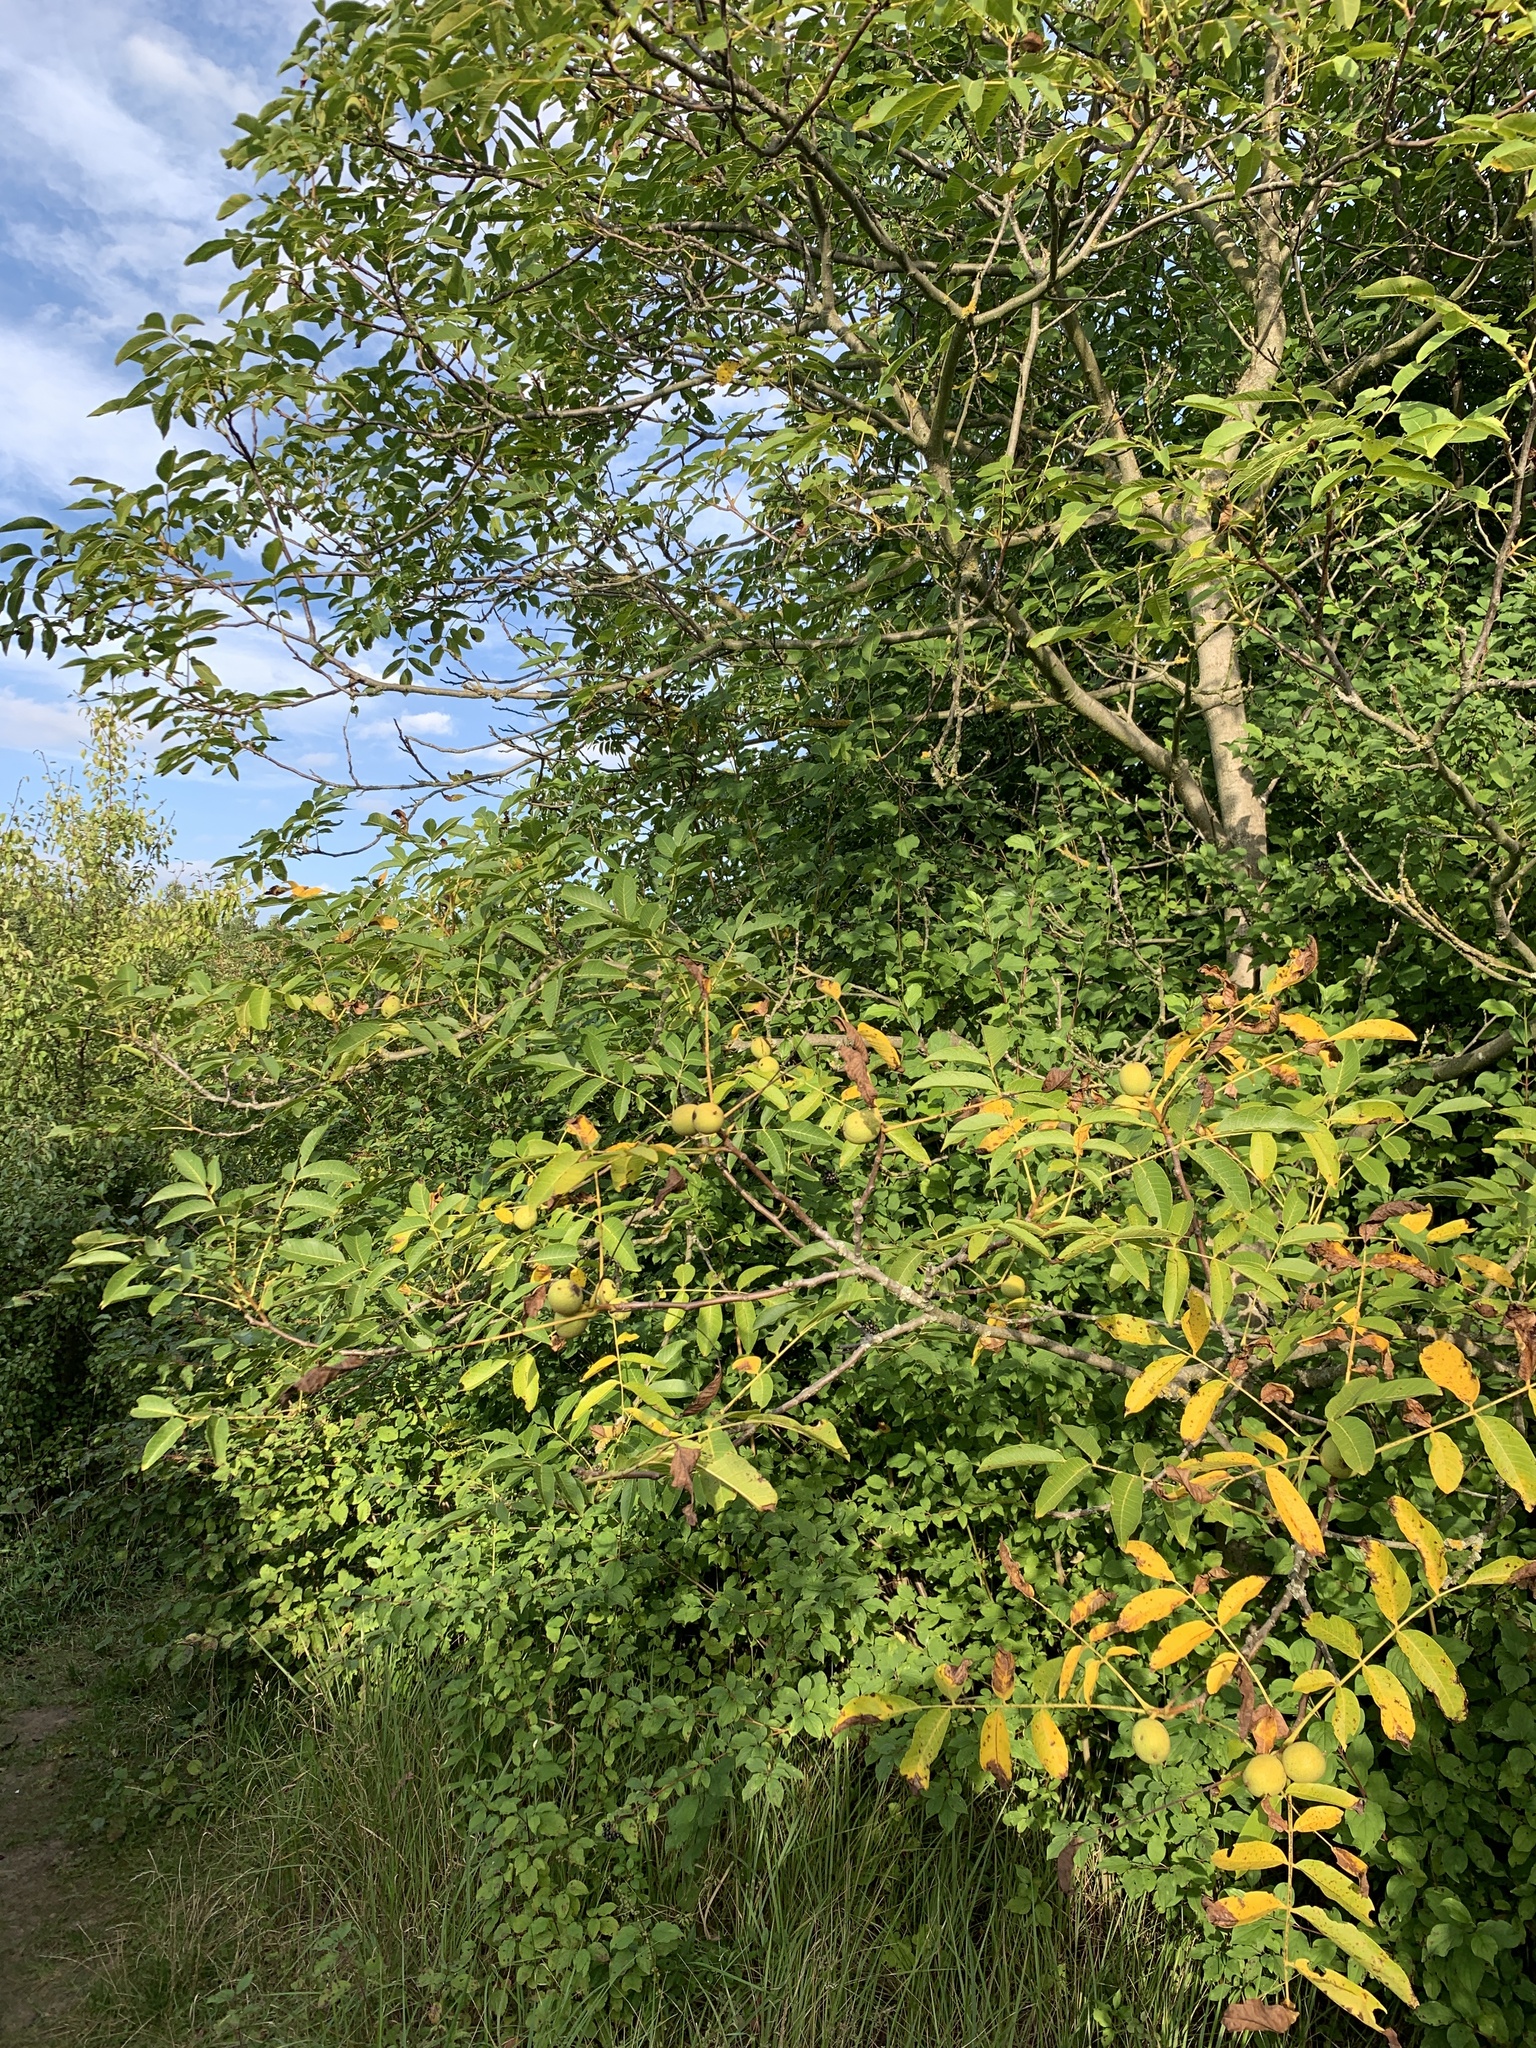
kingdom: Plantae
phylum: Tracheophyta
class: Magnoliopsida
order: Fagales
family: Juglandaceae
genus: Juglans
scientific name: Juglans regia
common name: Walnut
